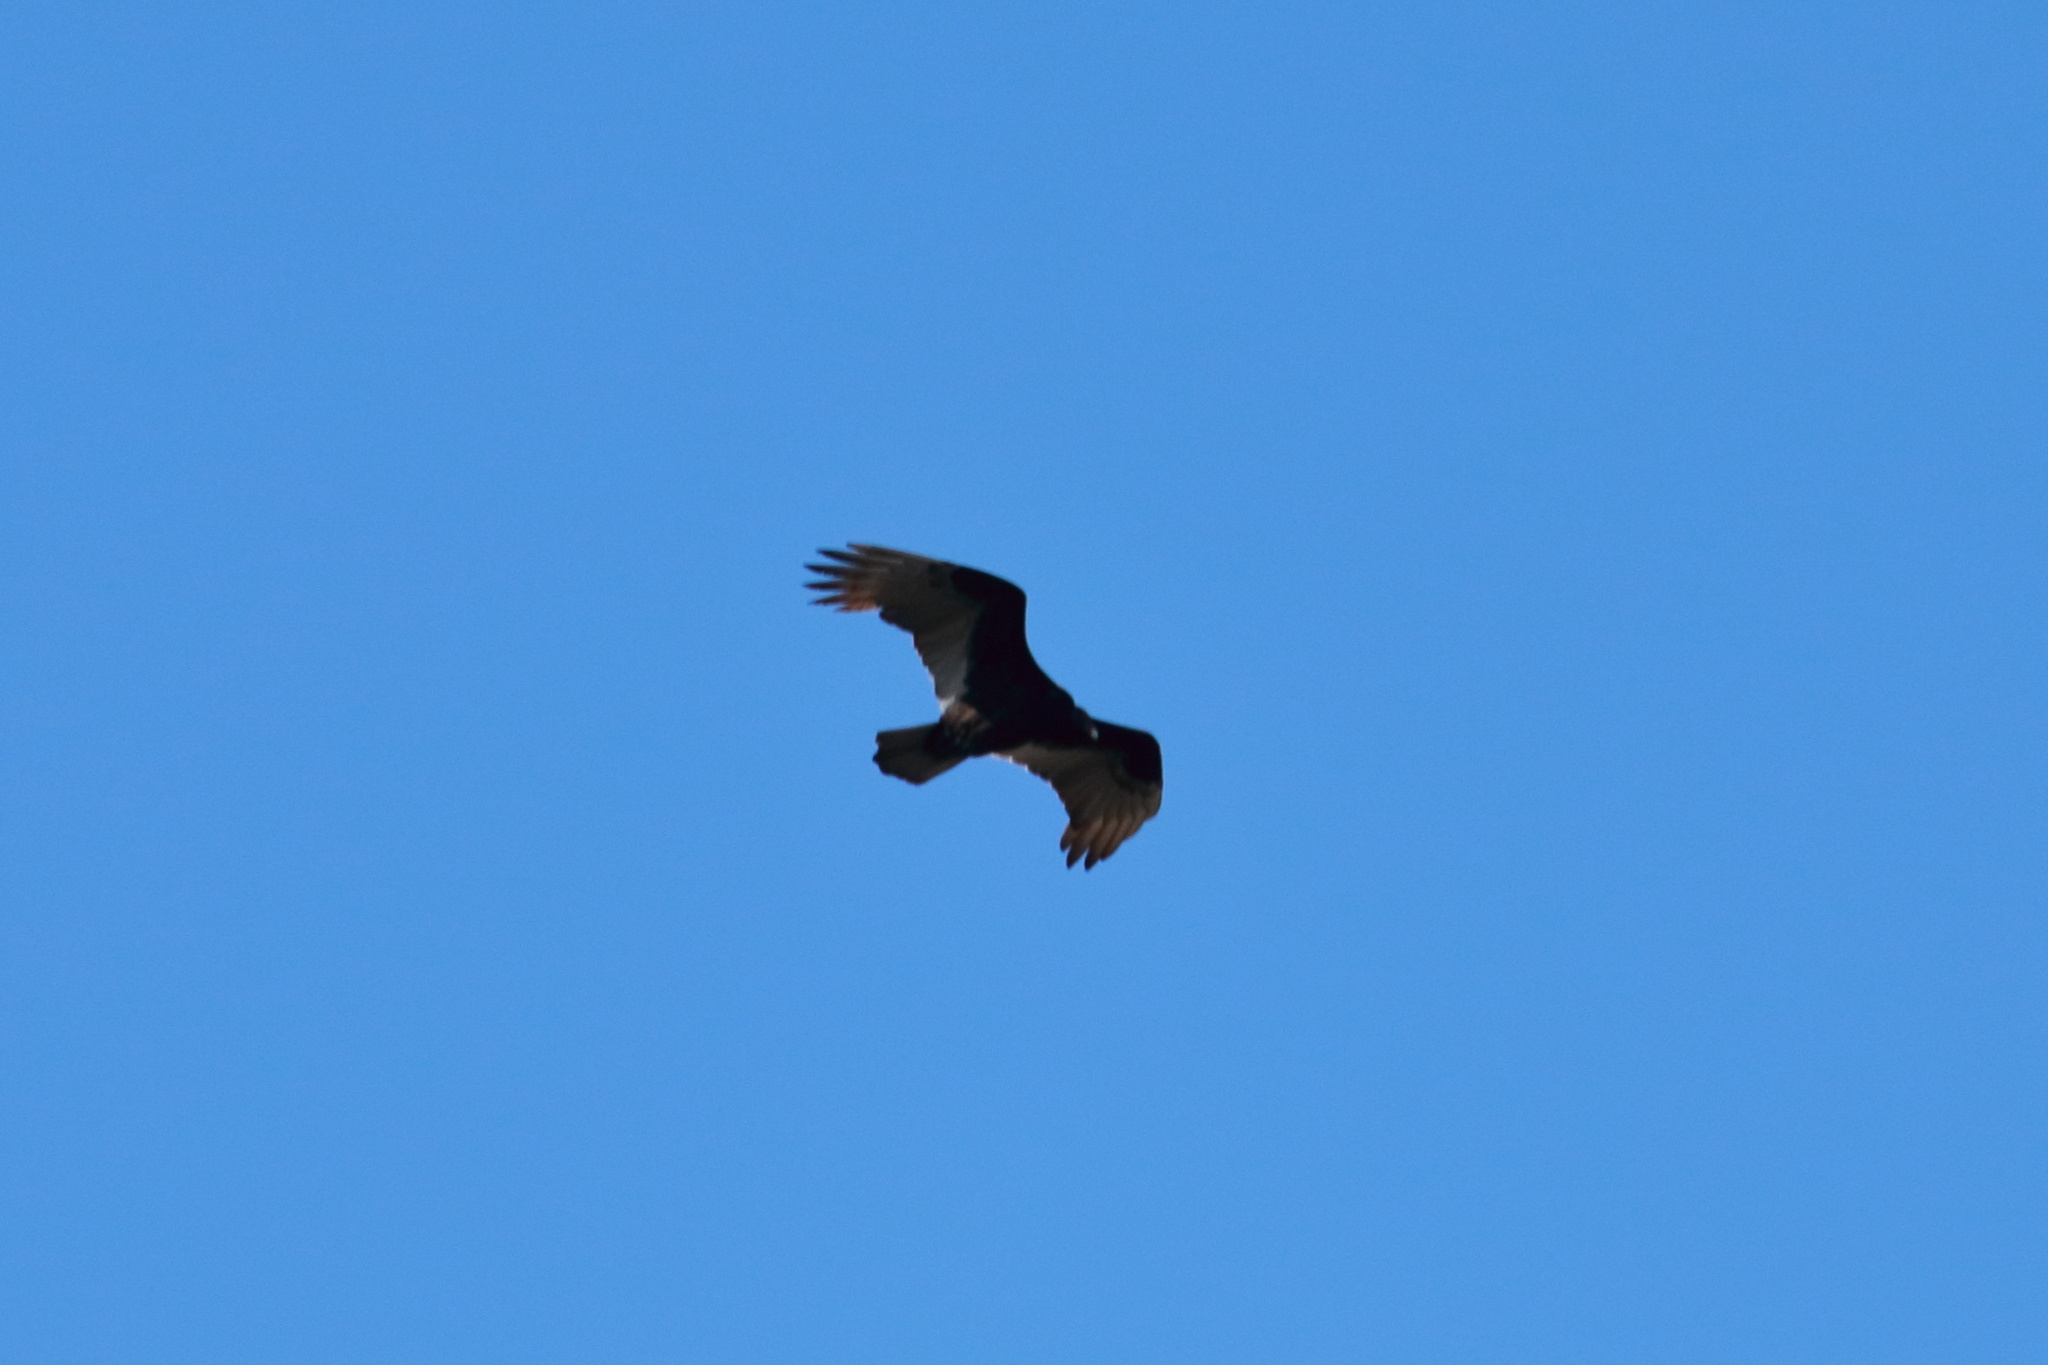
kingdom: Animalia
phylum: Chordata
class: Aves
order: Accipitriformes
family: Cathartidae
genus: Cathartes
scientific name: Cathartes aura
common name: Turkey vulture
